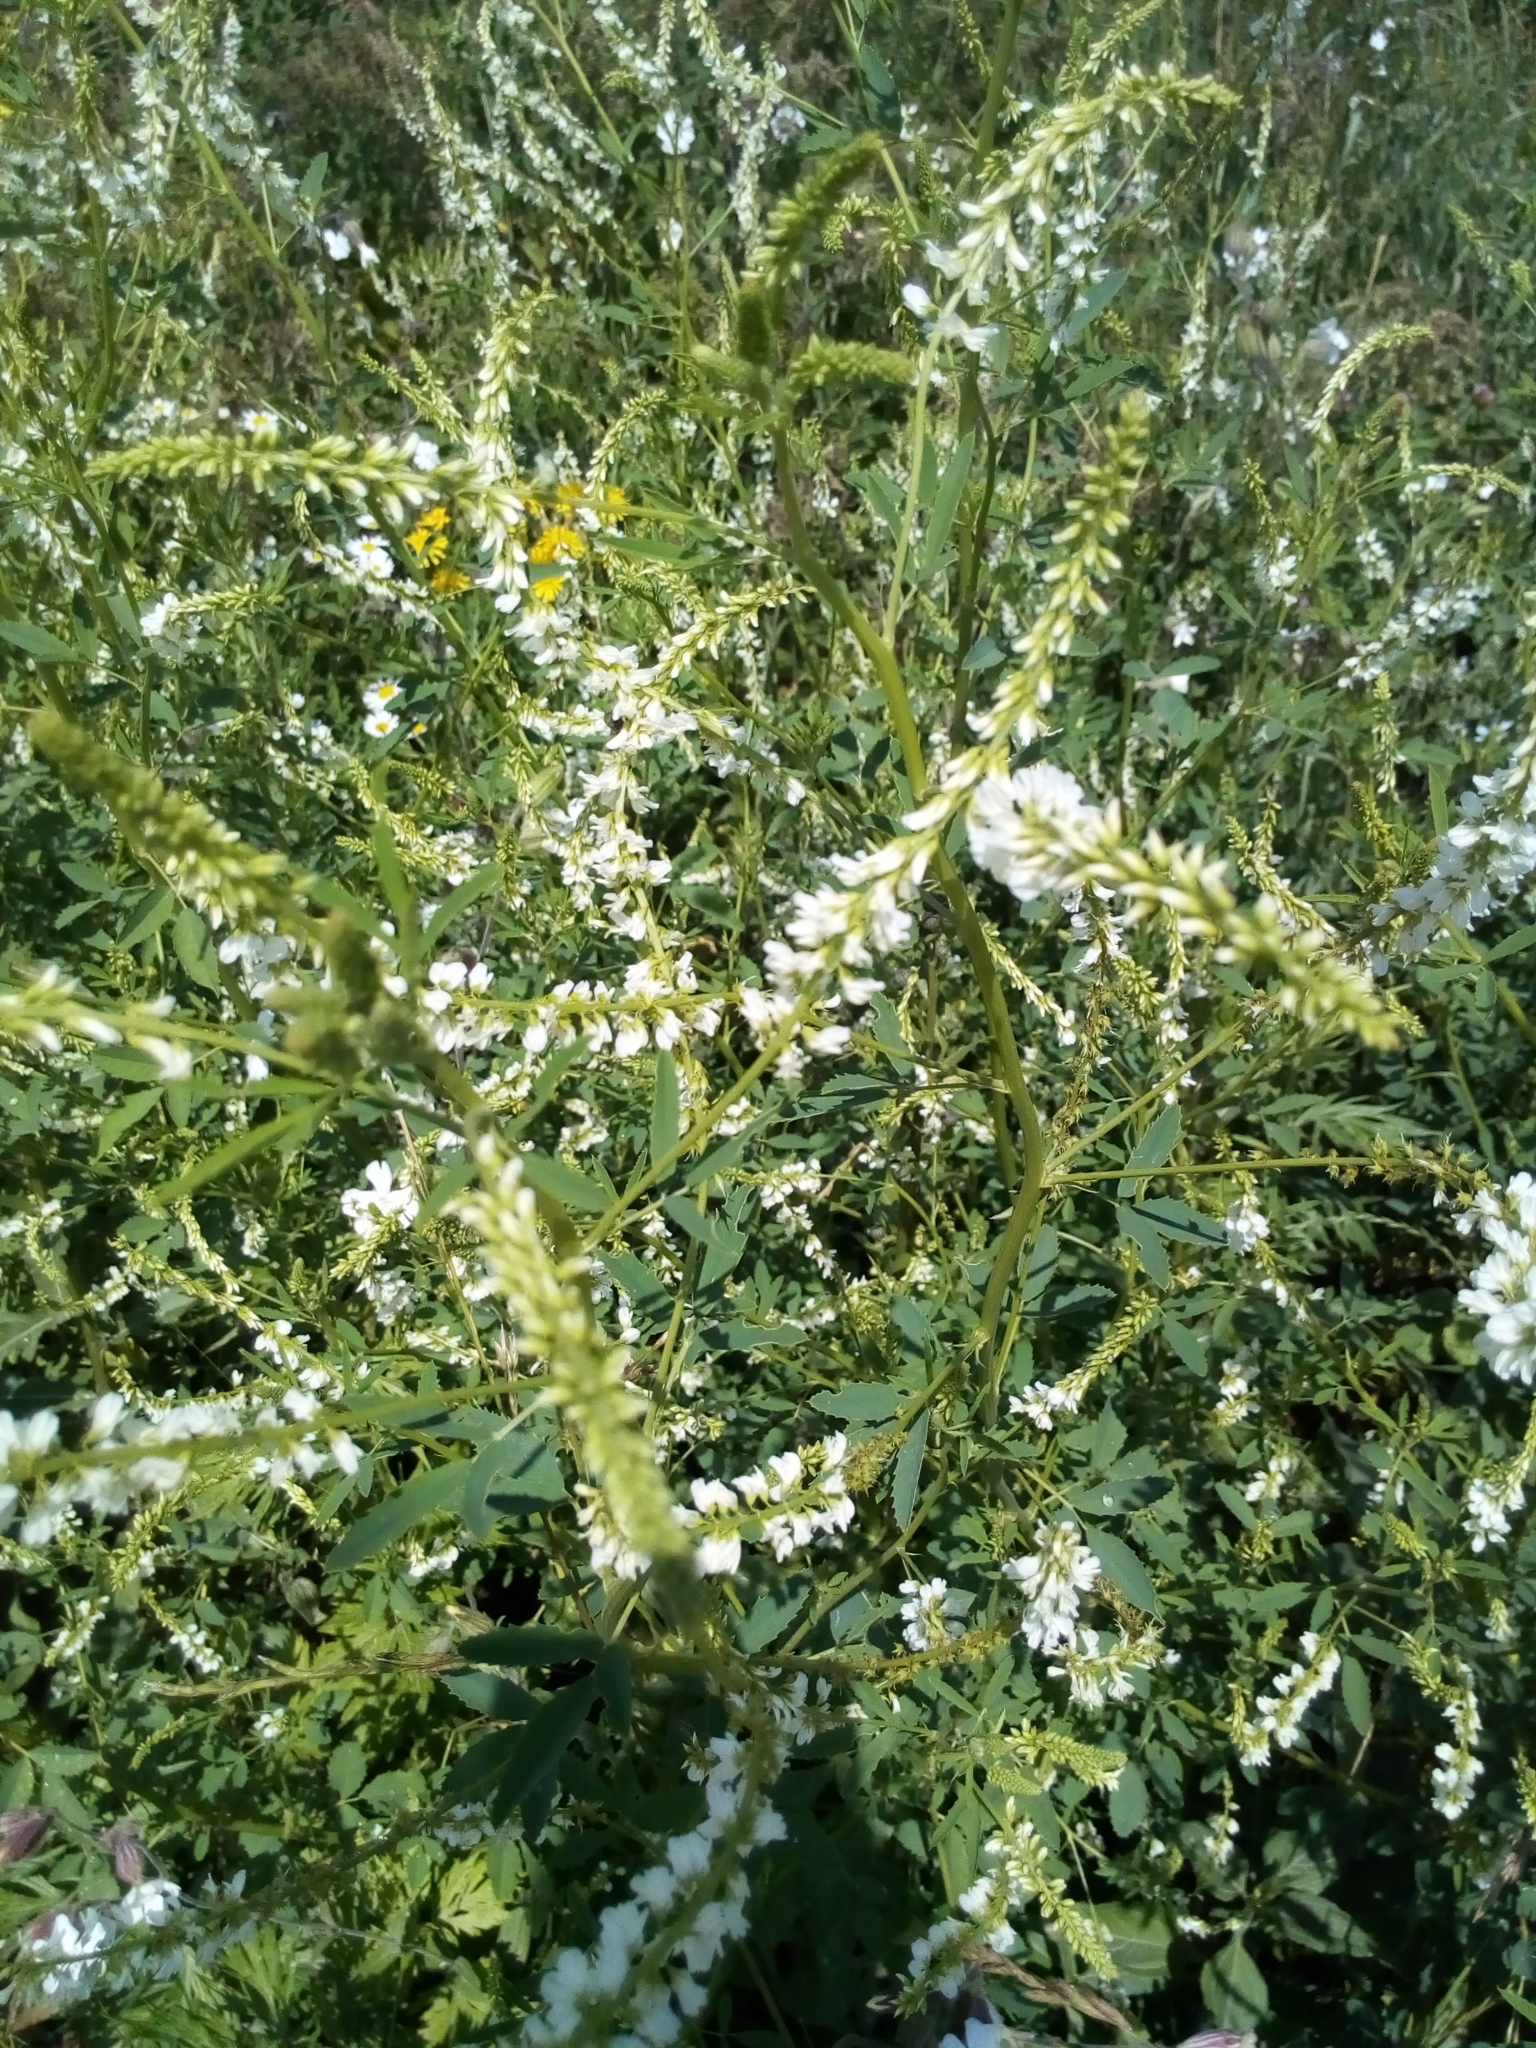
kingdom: Plantae
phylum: Tracheophyta
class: Magnoliopsida
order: Fabales
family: Fabaceae
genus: Melilotus
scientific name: Melilotus albus
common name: White melilot
